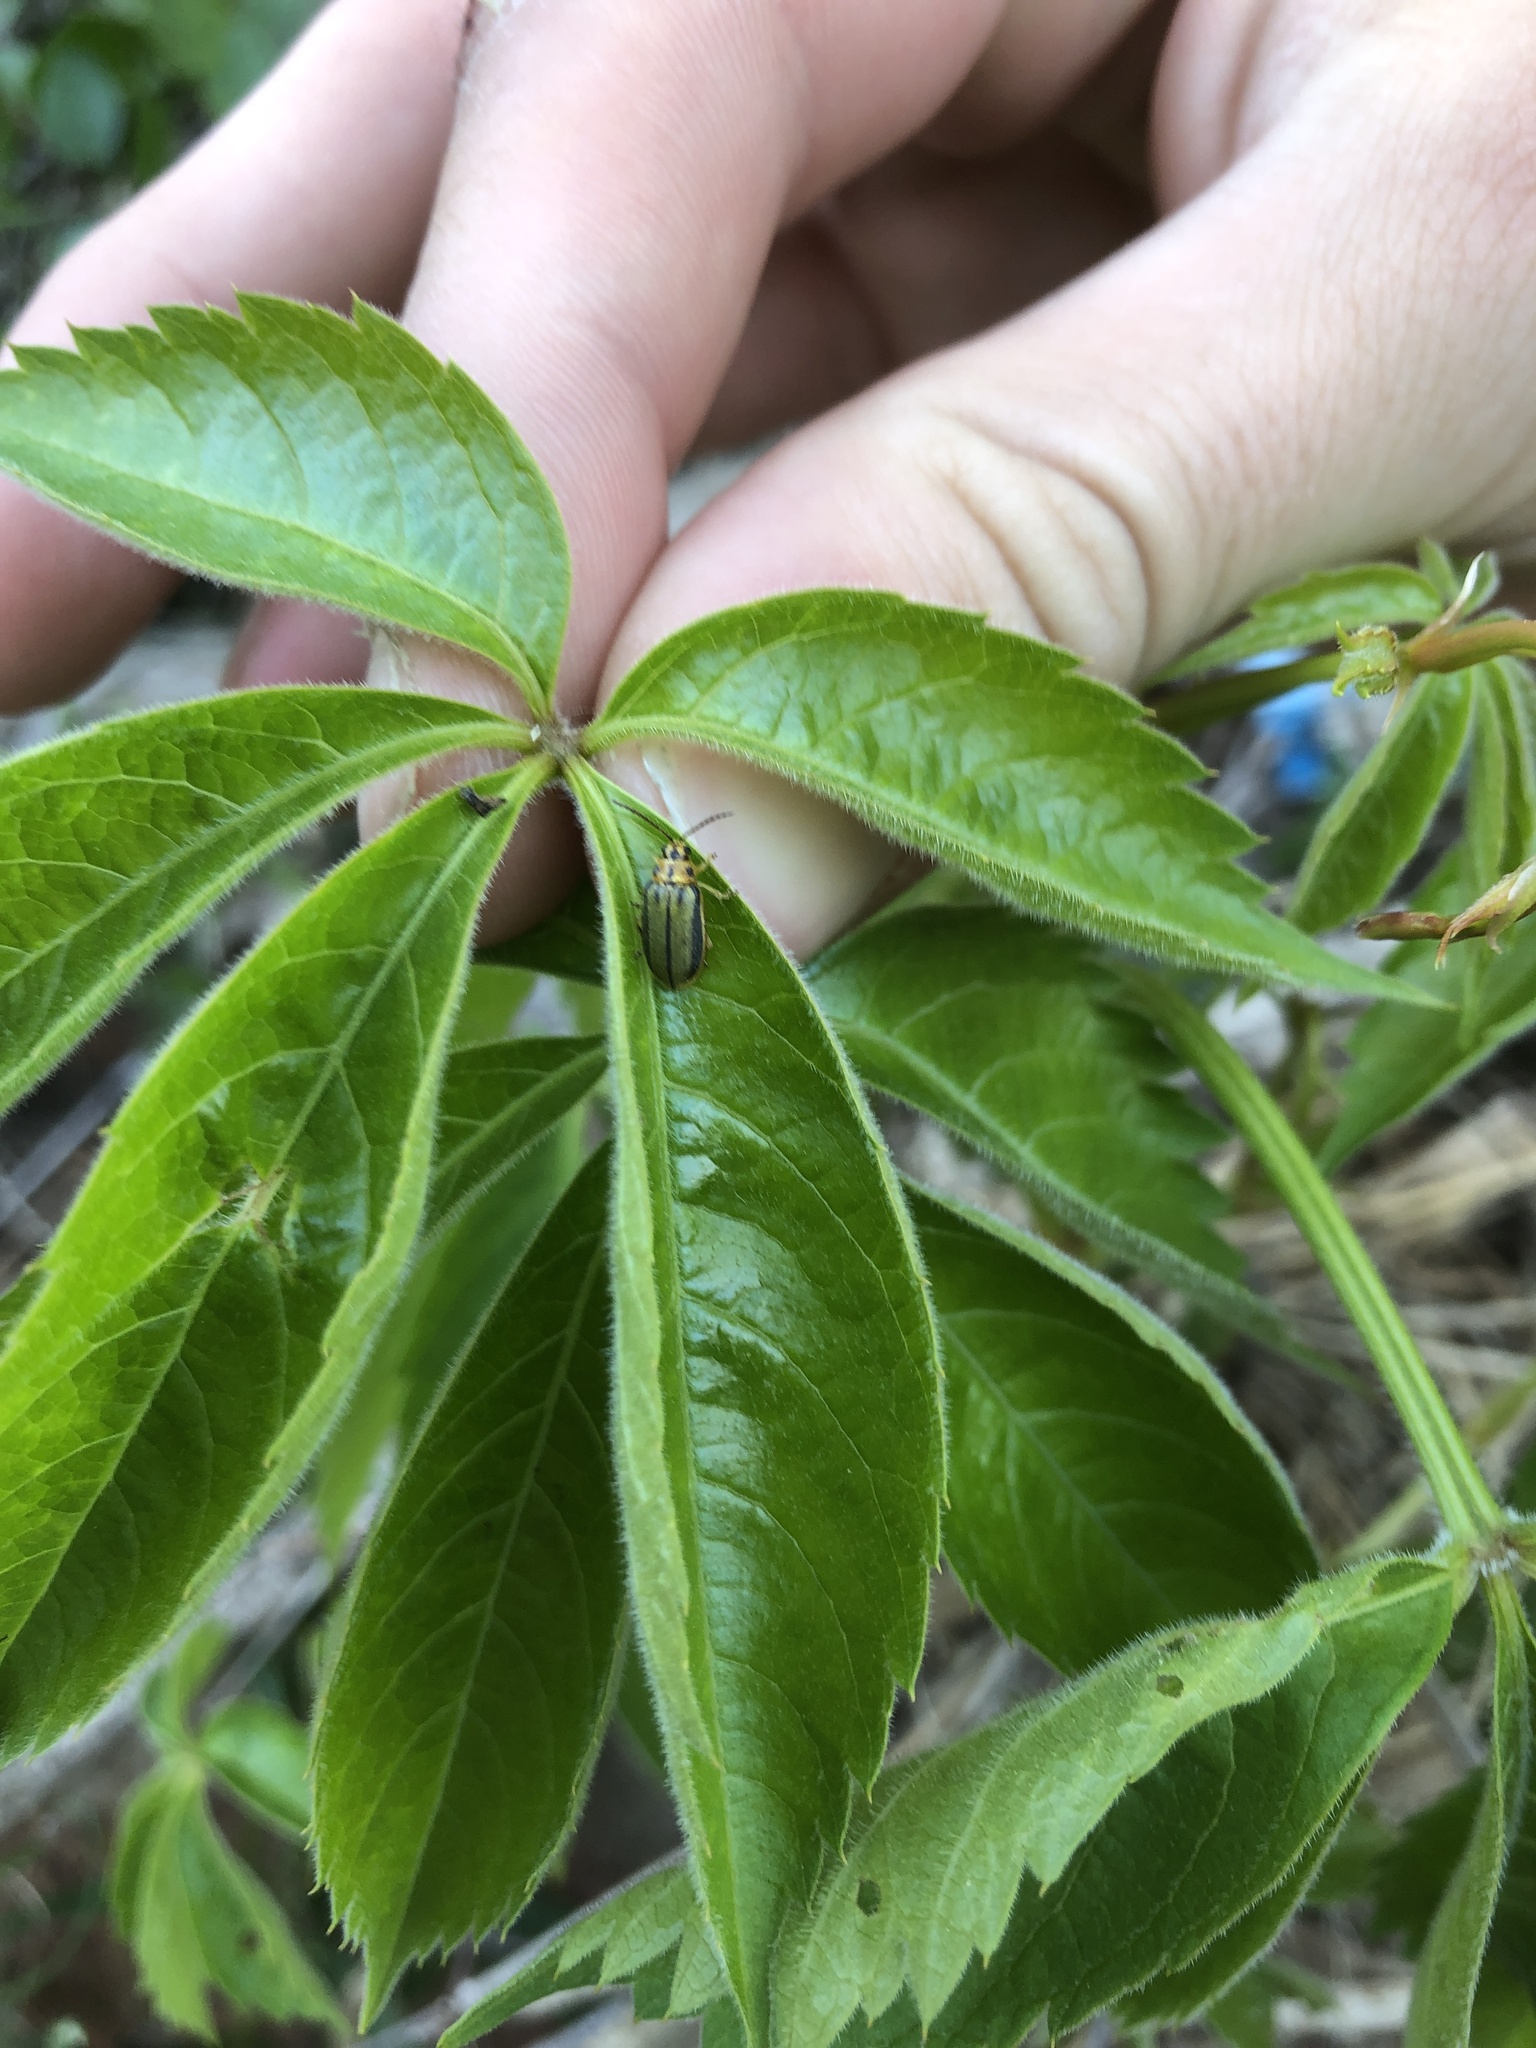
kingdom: Animalia
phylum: Arthropoda
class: Insecta
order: Coleoptera
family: Chrysomelidae
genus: Xanthogaleruca
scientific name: Xanthogaleruca luteola
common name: Elm leaf beetle
